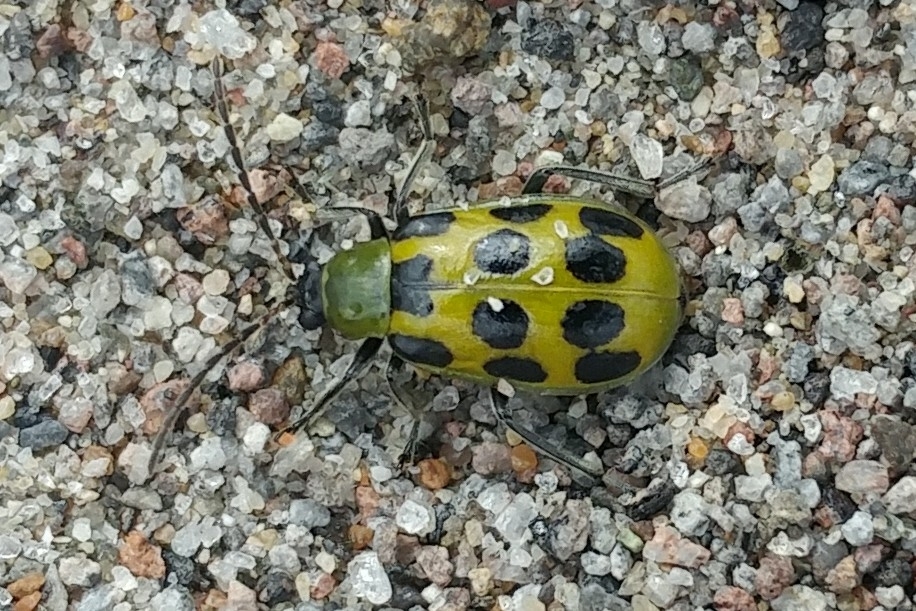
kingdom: Animalia
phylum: Arthropoda
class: Insecta
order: Coleoptera
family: Chrysomelidae
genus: Diabrotica
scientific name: Diabrotica undecimpunctata
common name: Spotted cucumber beetle
